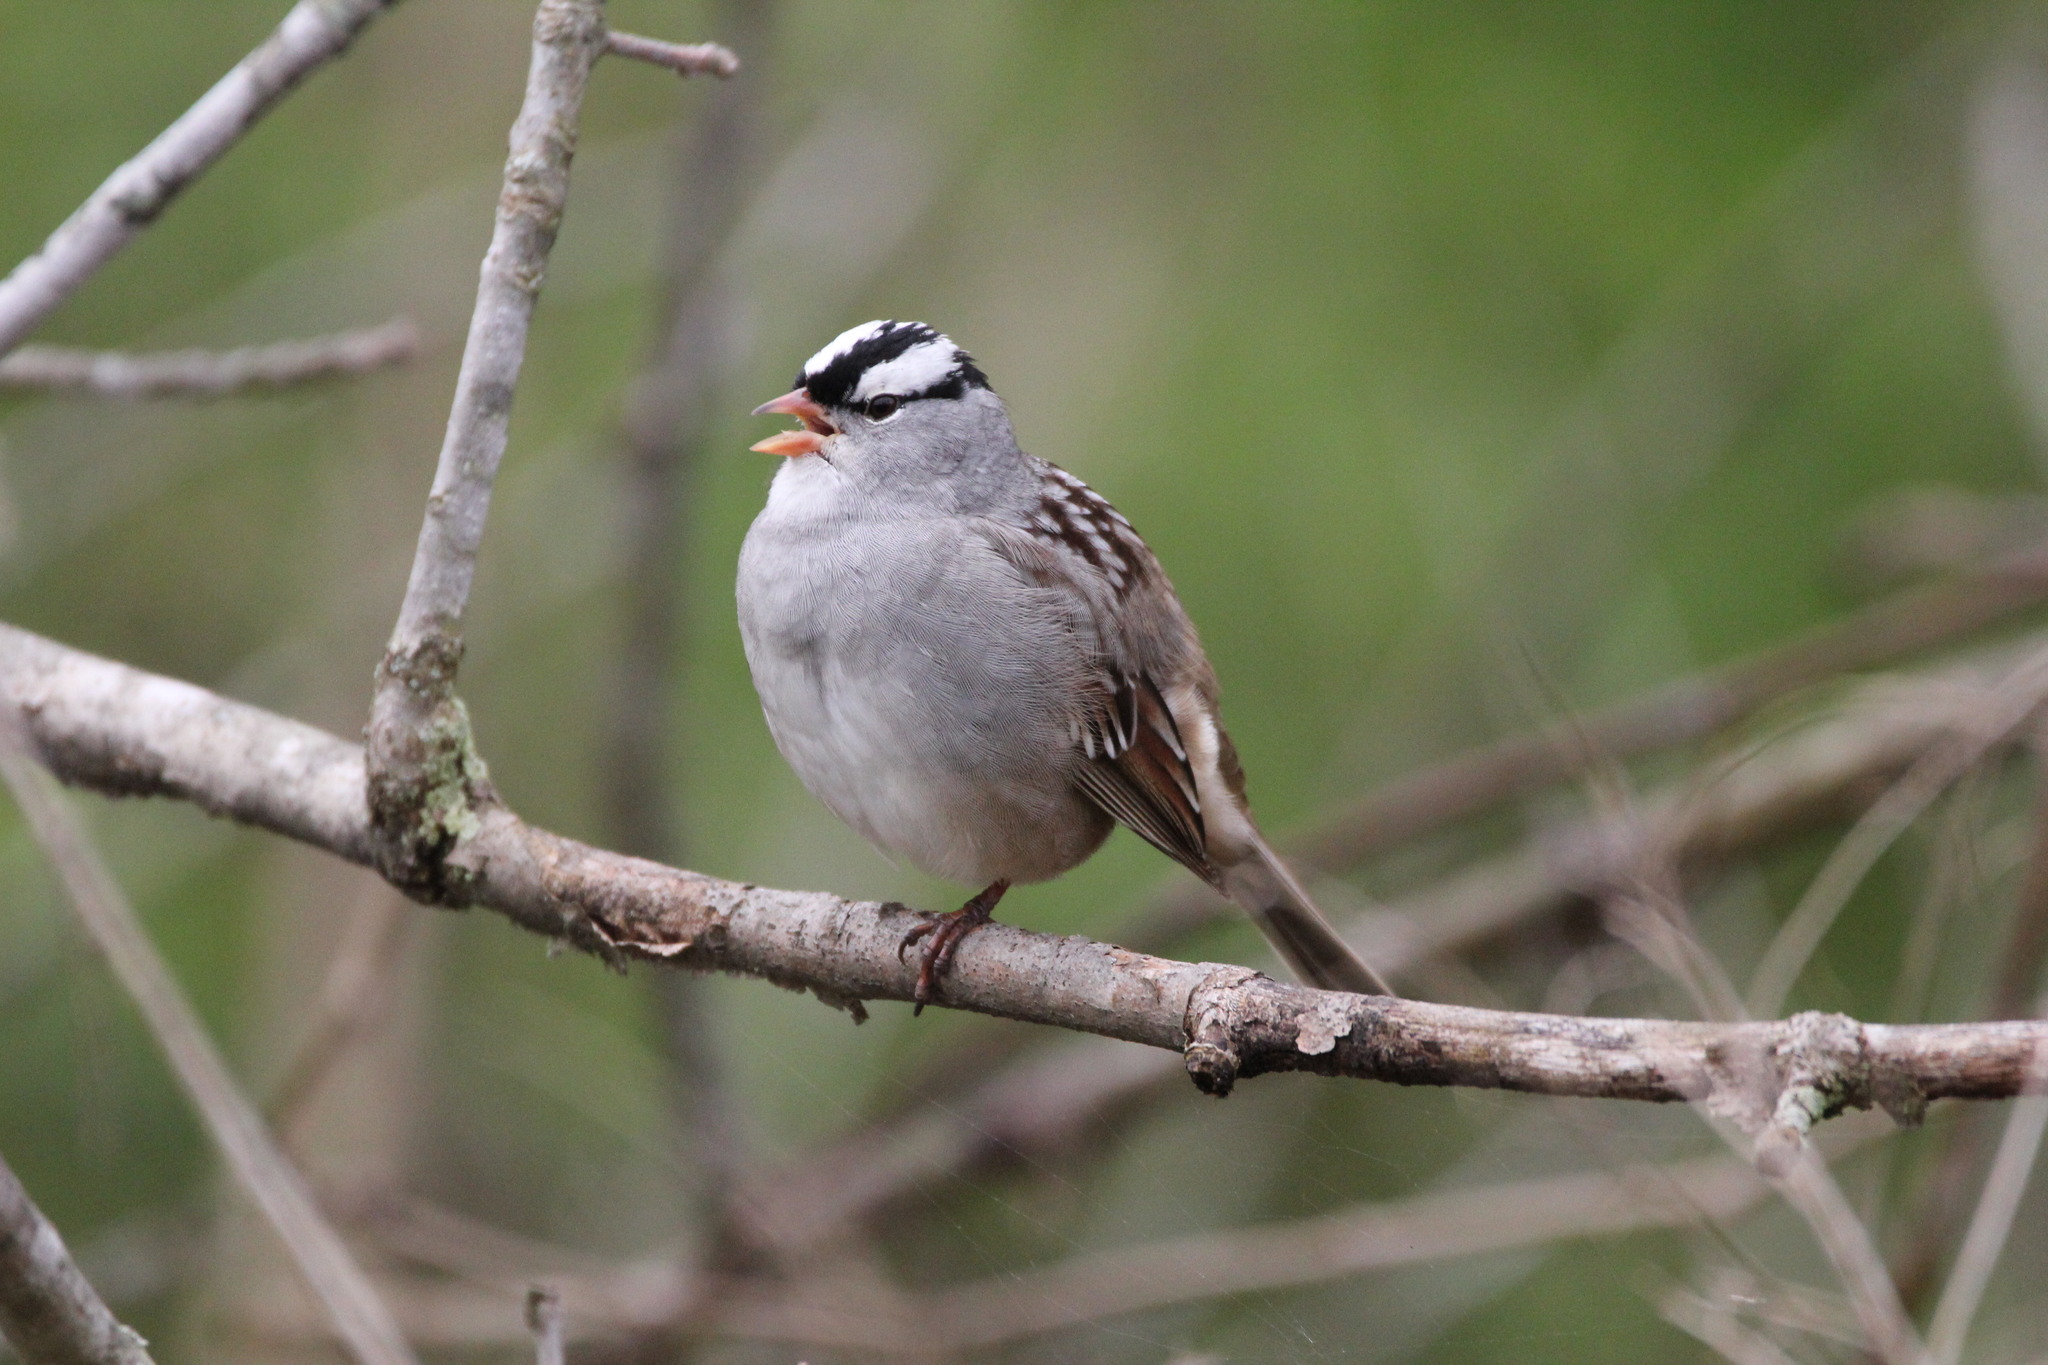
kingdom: Animalia
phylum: Chordata
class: Aves
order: Passeriformes
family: Passerellidae
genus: Zonotrichia
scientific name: Zonotrichia leucophrys
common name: White-crowned sparrow
